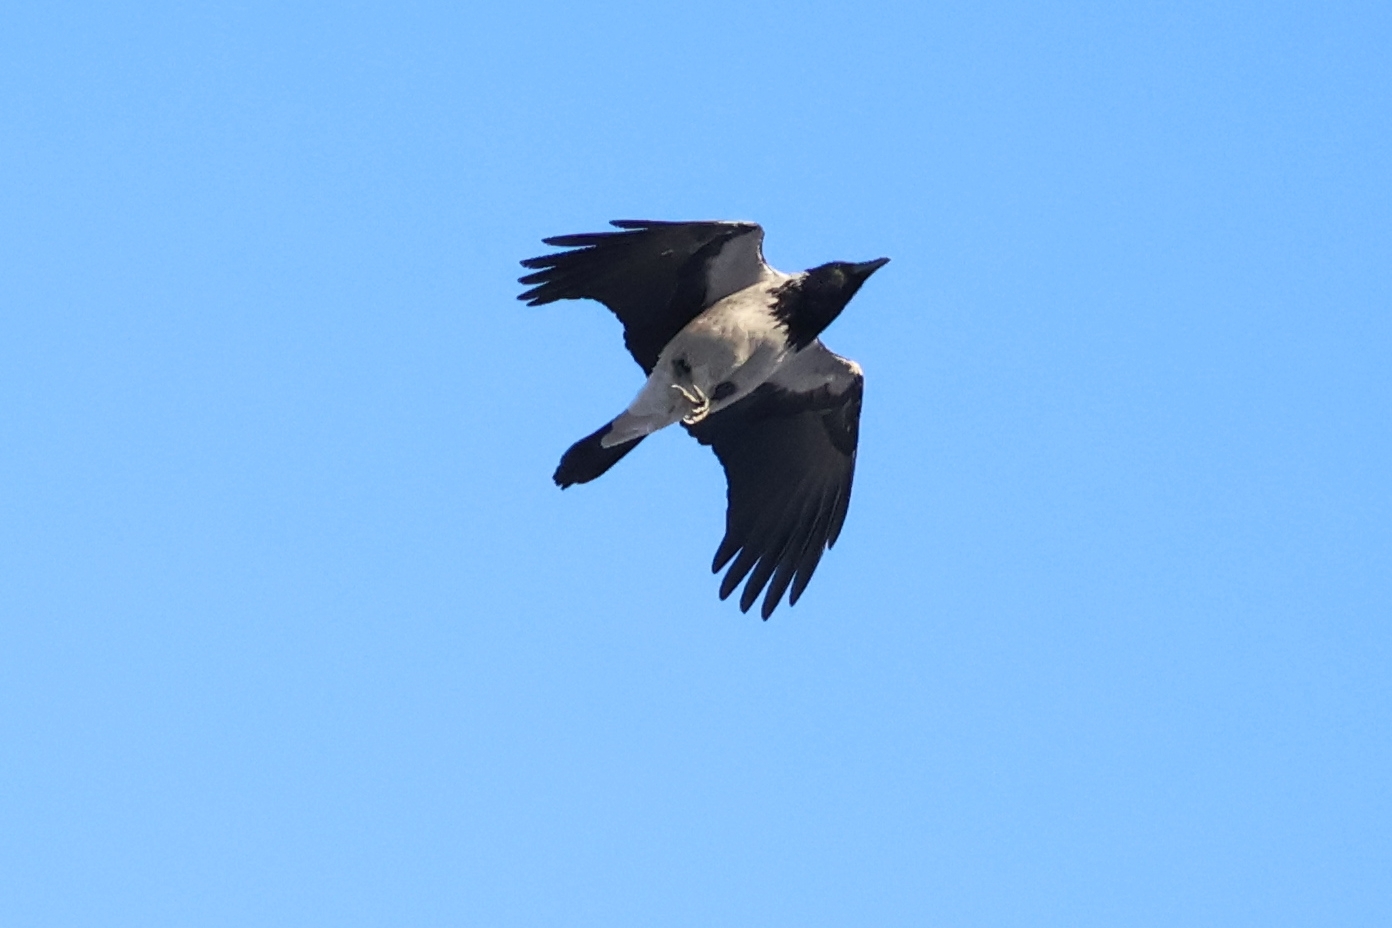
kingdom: Animalia
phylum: Chordata
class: Aves
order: Passeriformes
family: Corvidae
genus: Corvus
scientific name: Corvus cornix
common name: Hooded crow
